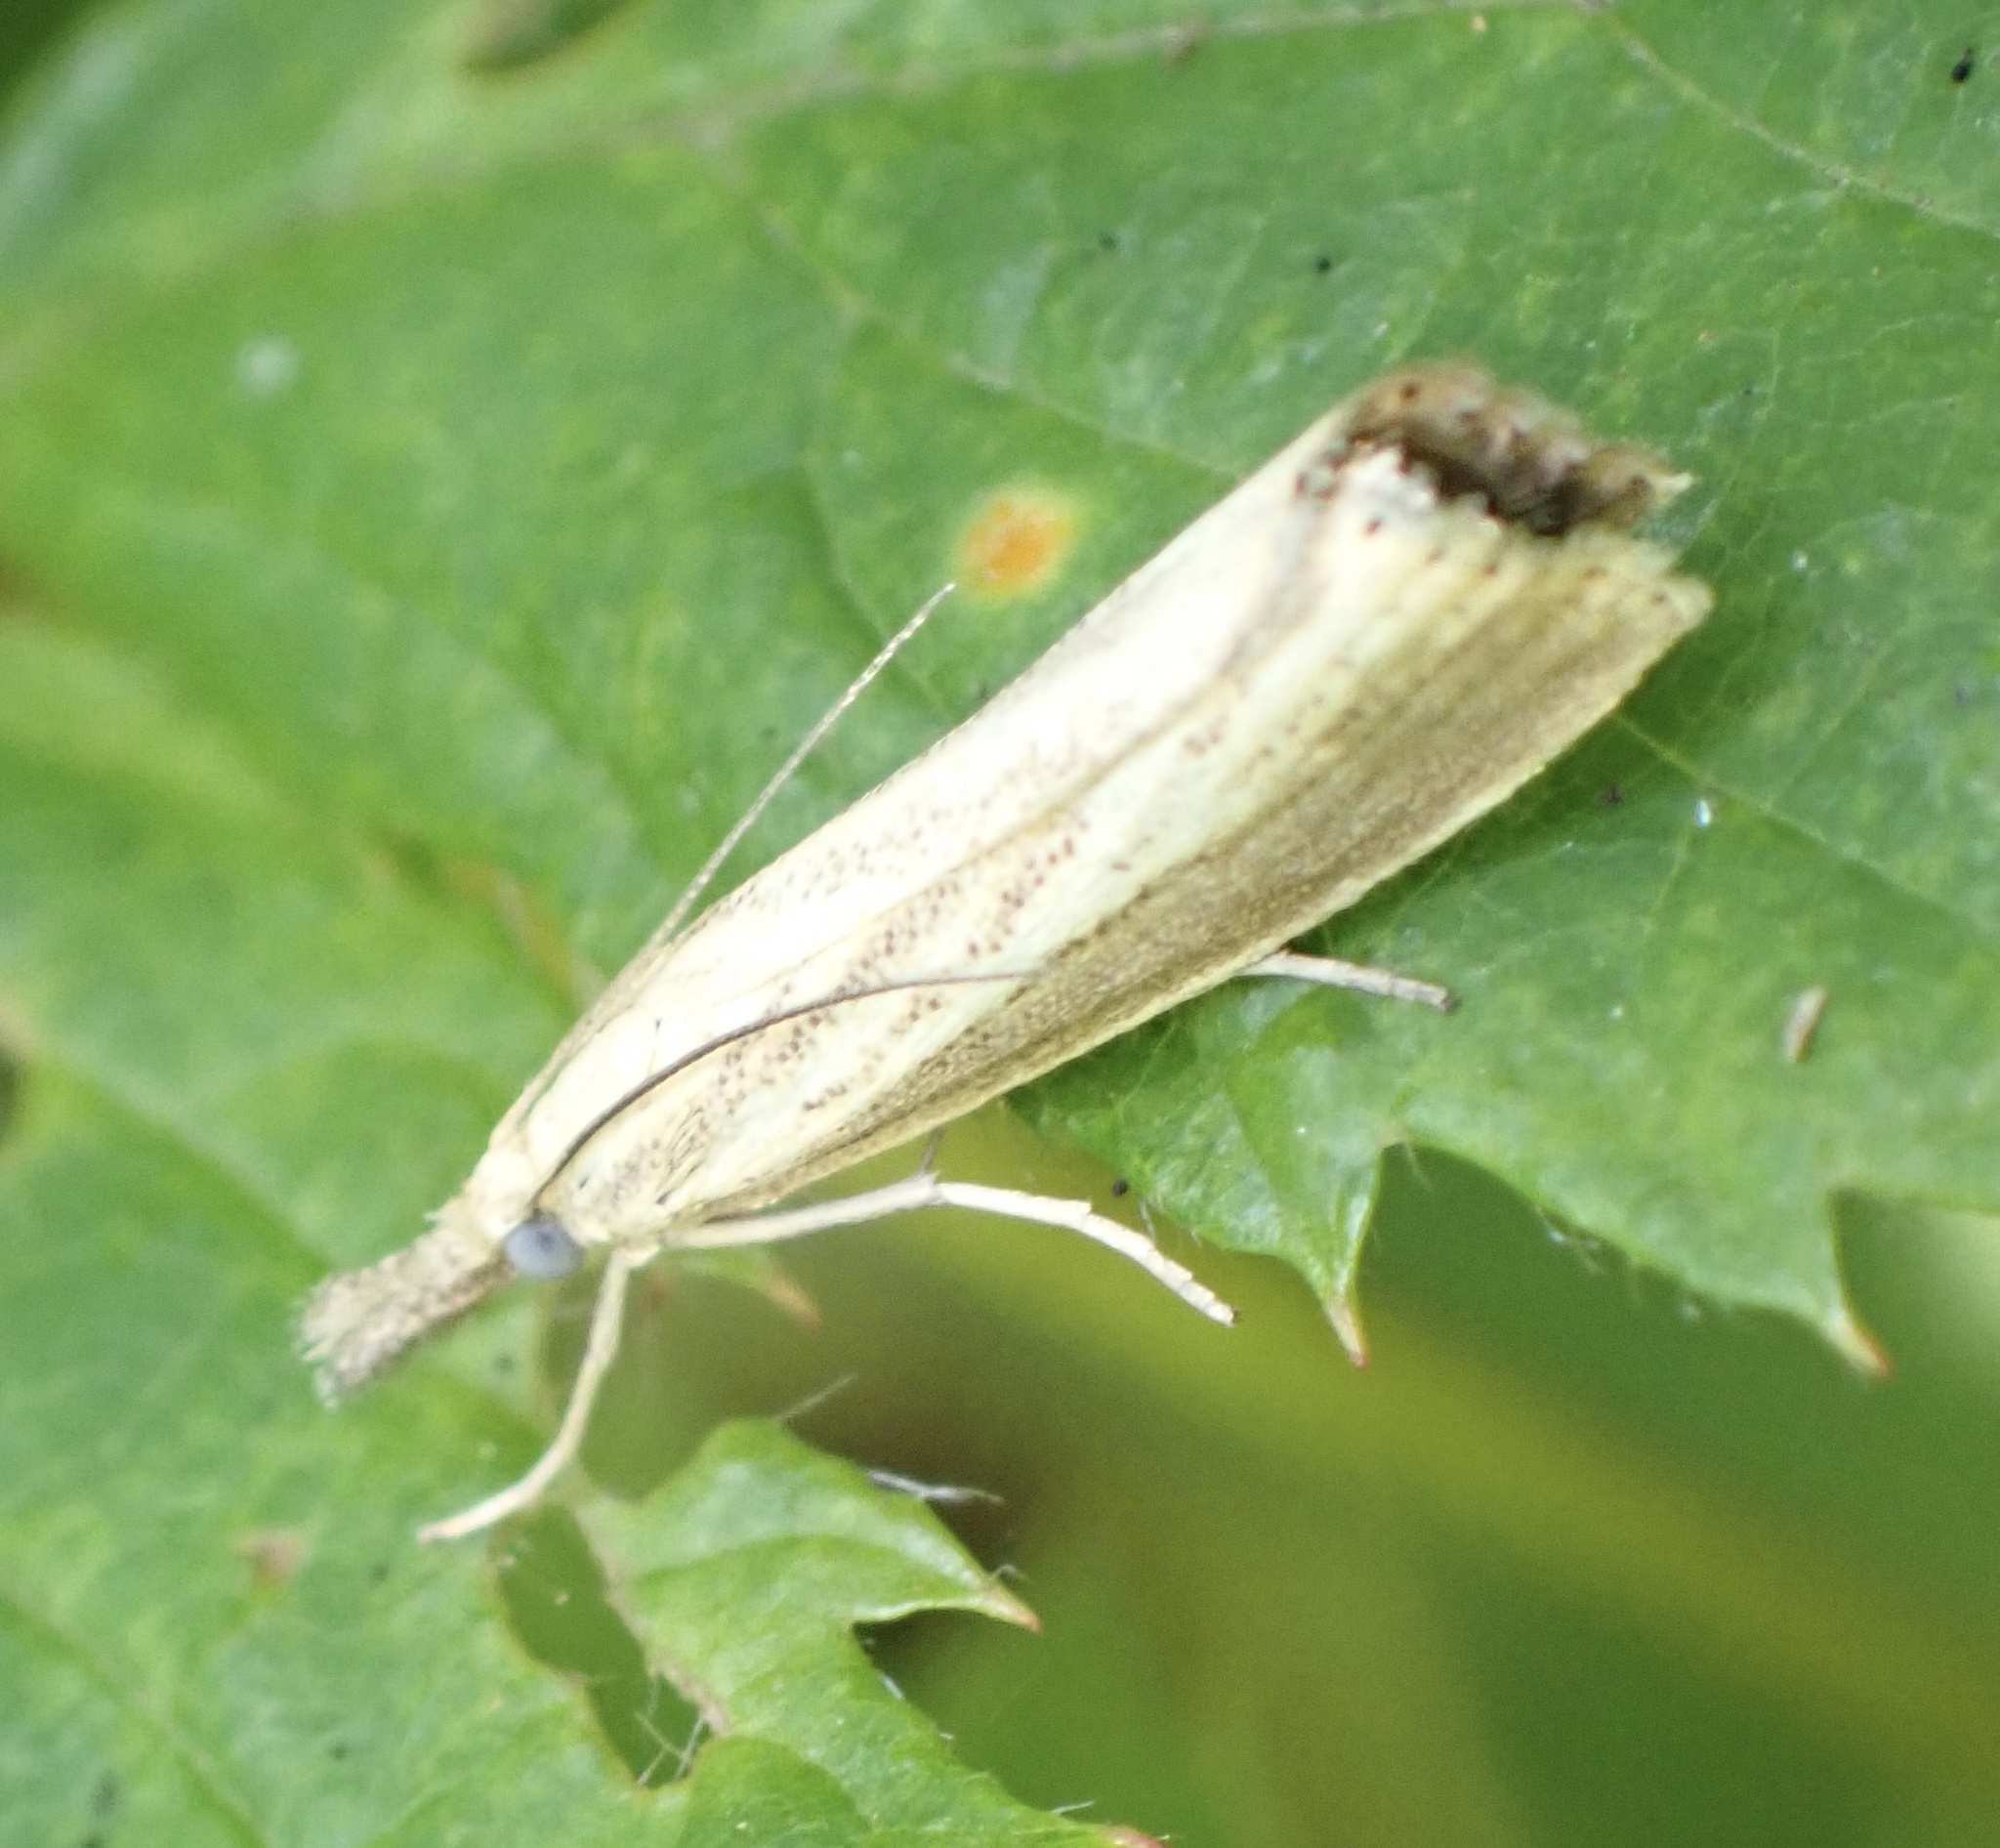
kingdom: Animalia
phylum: Arthropoda
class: Insecta
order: Lepidoptera
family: Crambidae
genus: Agriphila
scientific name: Agriphila straminella
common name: Straw grass-veneer
